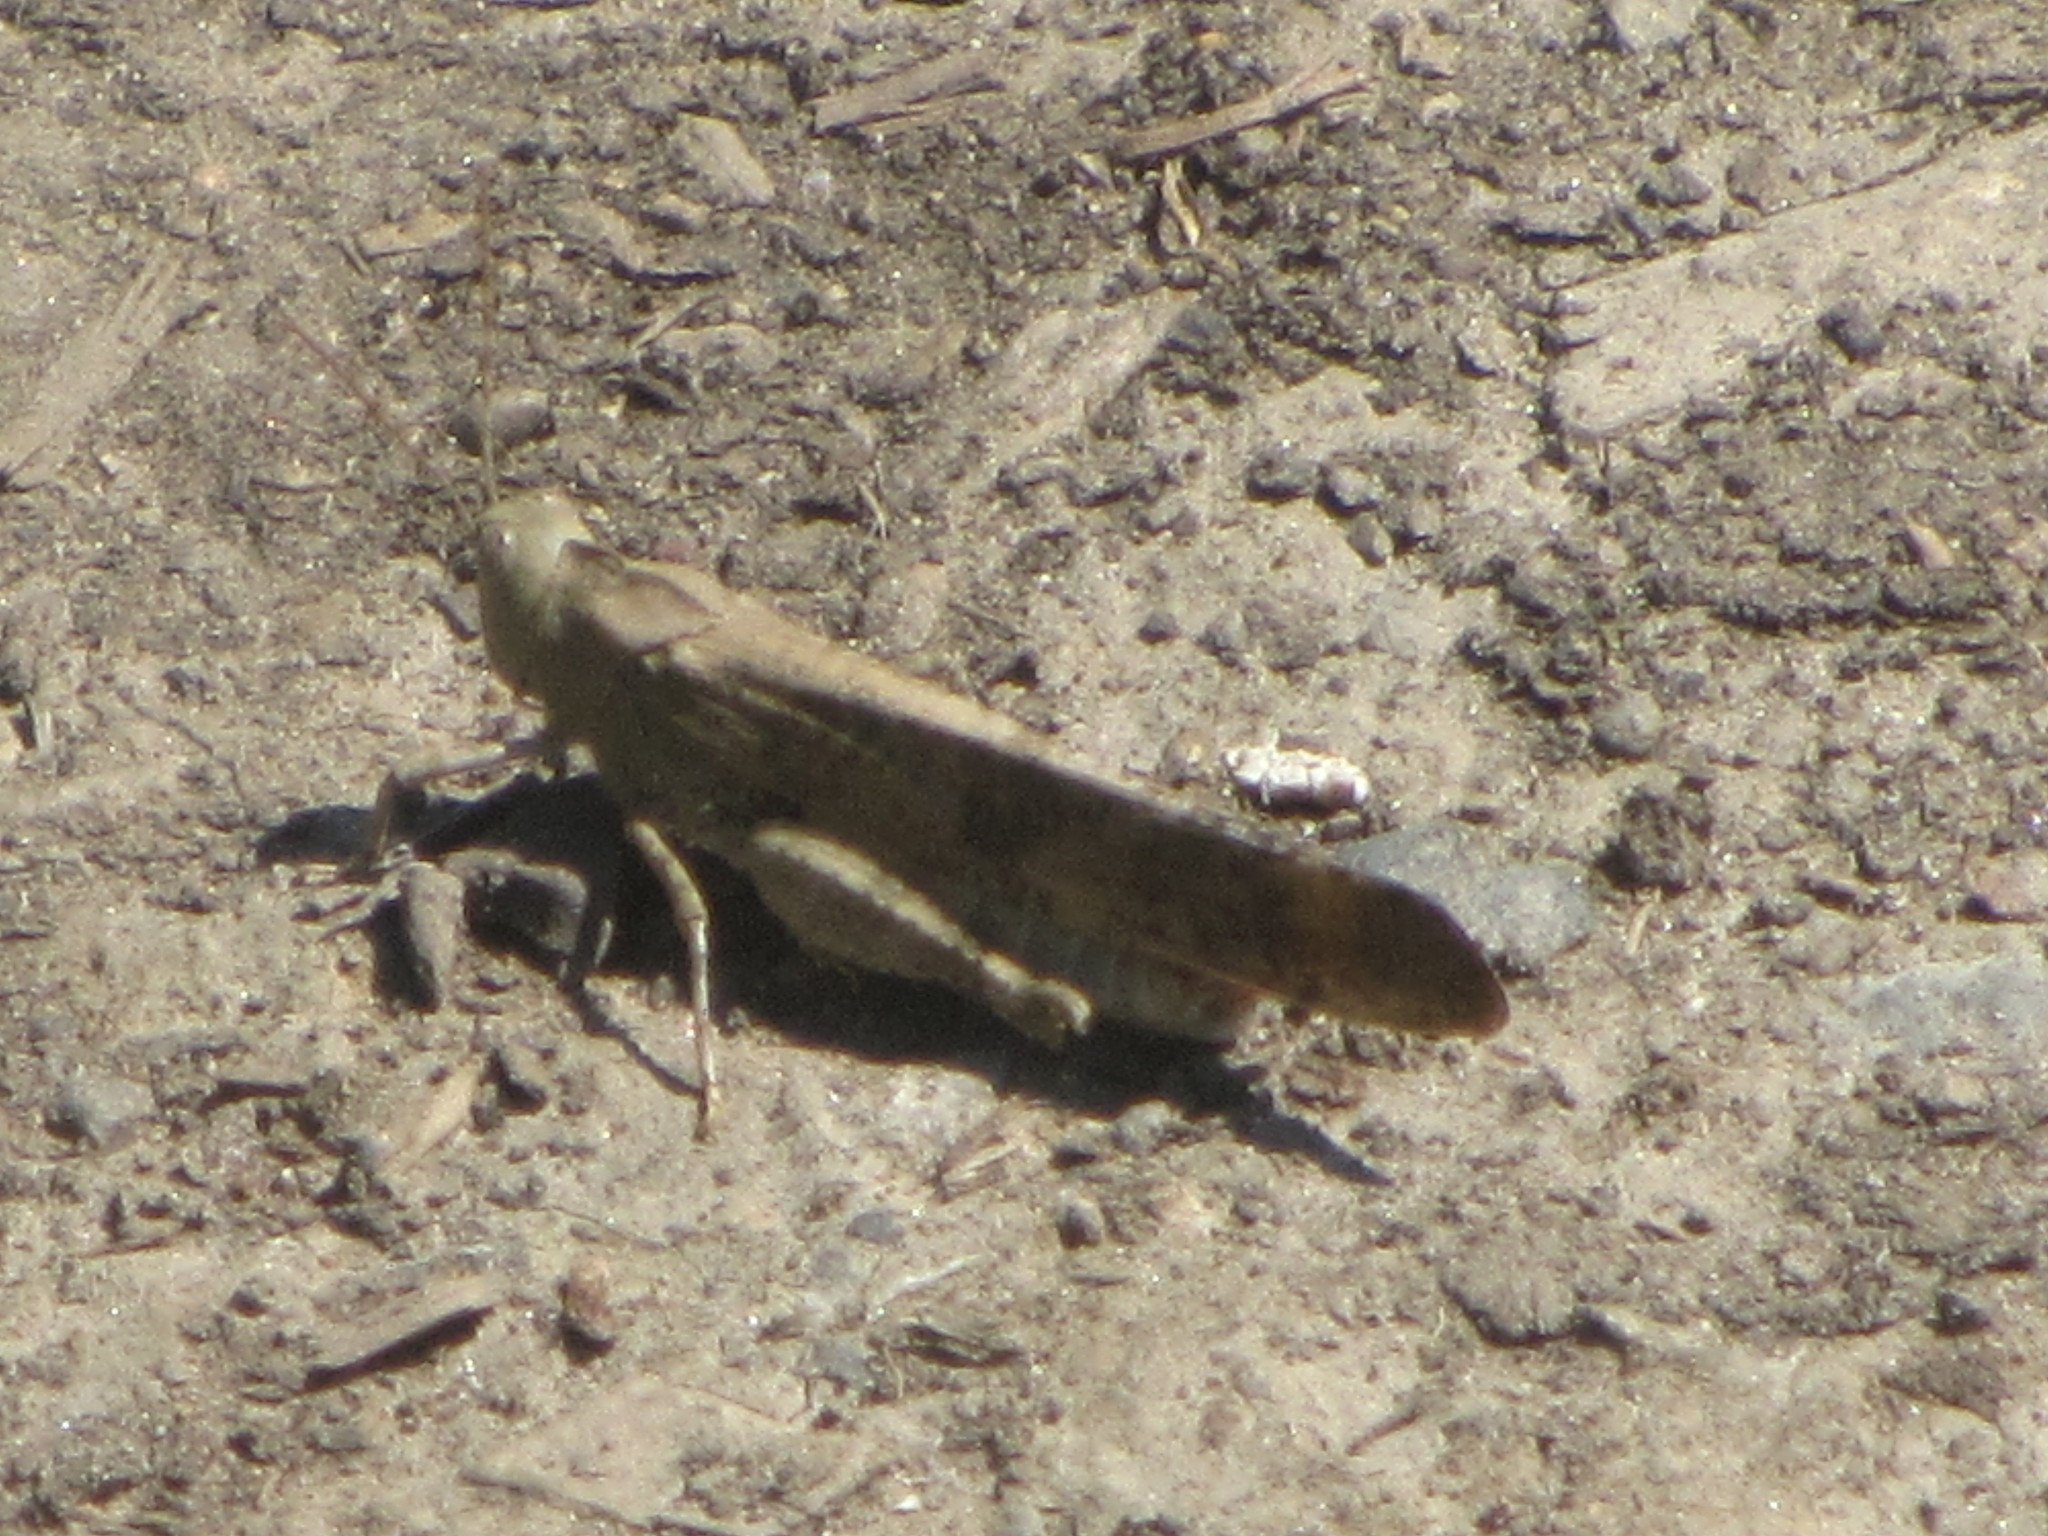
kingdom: Animalia
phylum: Arthropoda
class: Insecta
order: Orthoptera
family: Acrididae
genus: Dissosteira
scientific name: Dissosteira carolina
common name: Carolina grasshopper
